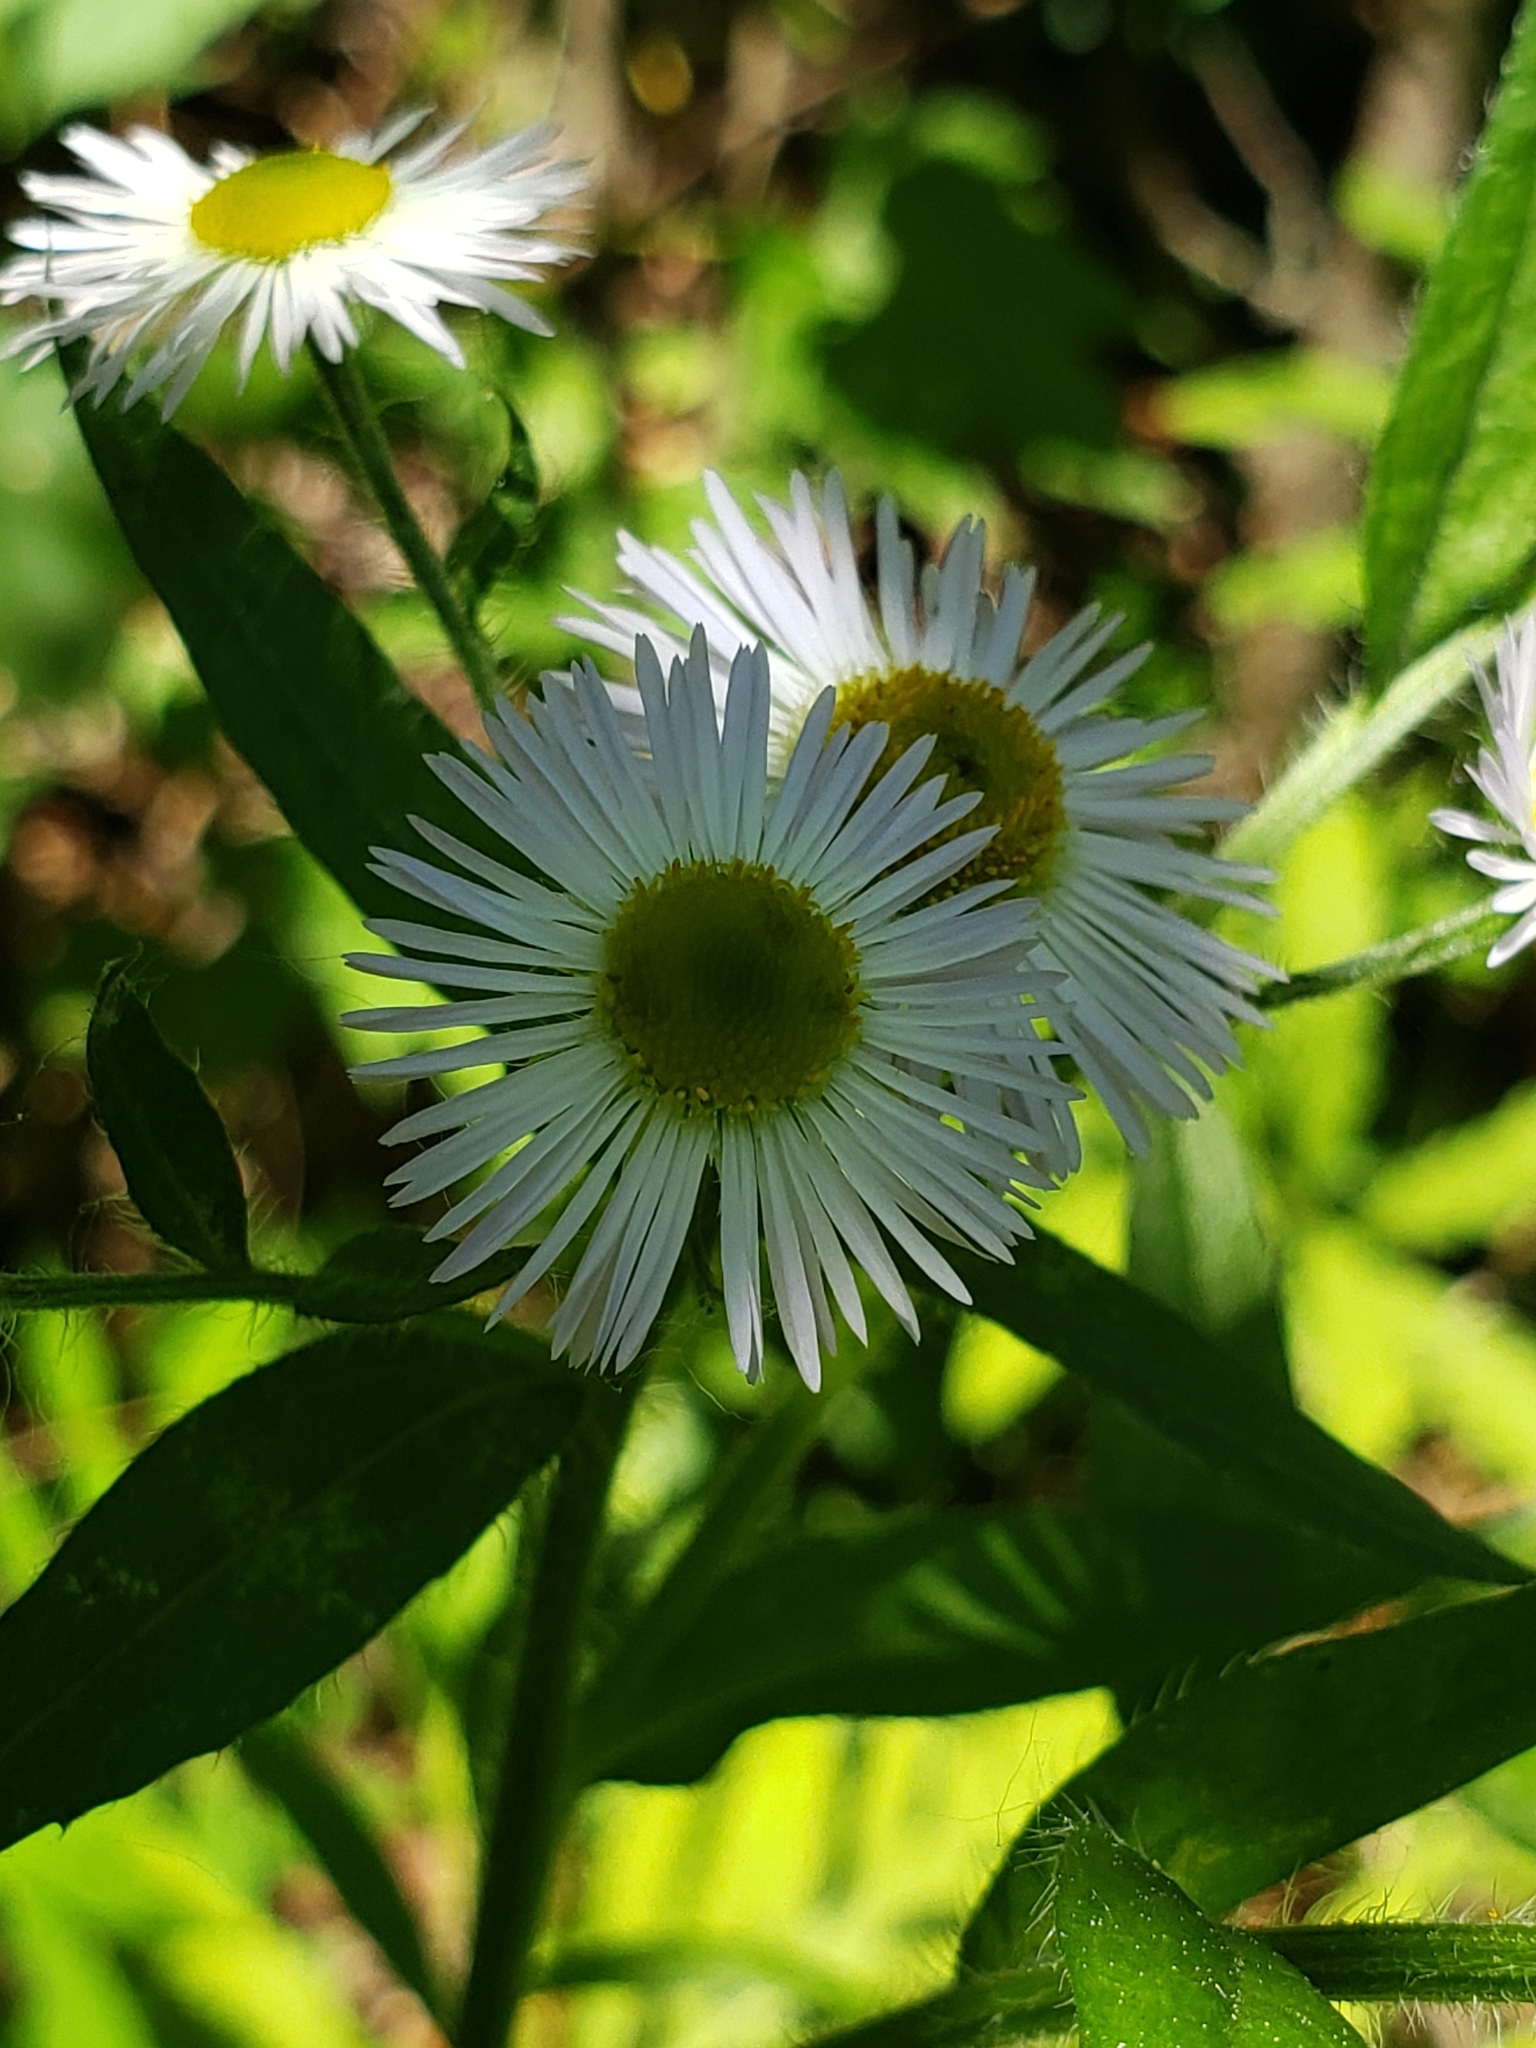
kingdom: Plantae
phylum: Tracheophyta
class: Magnoliopsida
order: Asterales
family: Asteraceae
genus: Erigeron
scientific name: Erigeron annuus
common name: Tall fleabane
